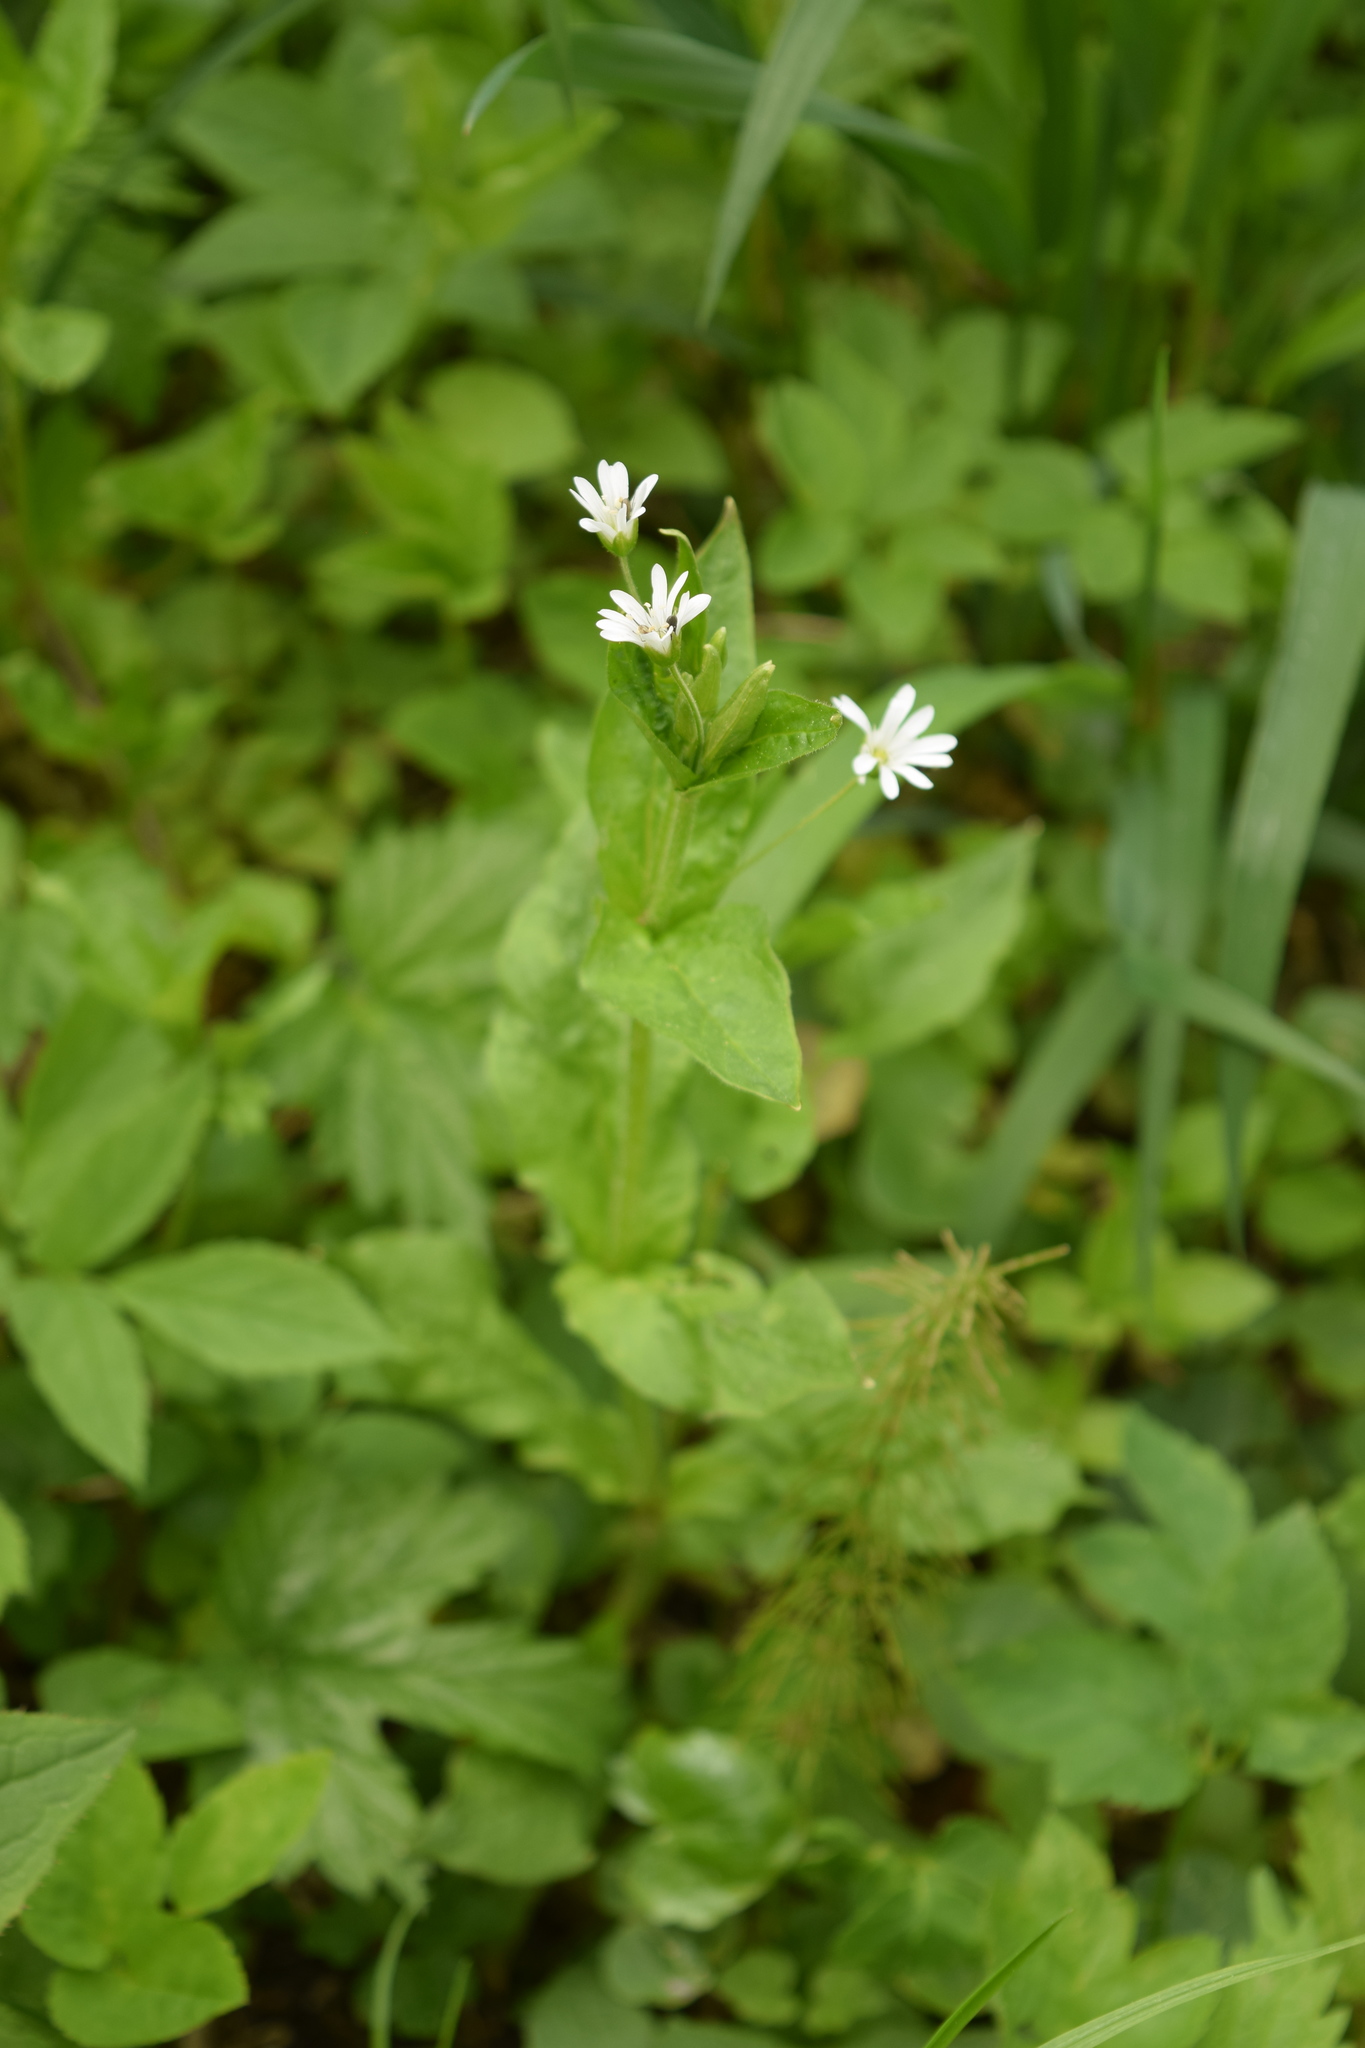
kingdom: Plantae
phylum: Tracheophyta
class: Magnoliopsida
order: Caryophyllales
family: Caryophyllaceae
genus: Stellaria
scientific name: Stellaria nemorum
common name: Wood stitchwort
